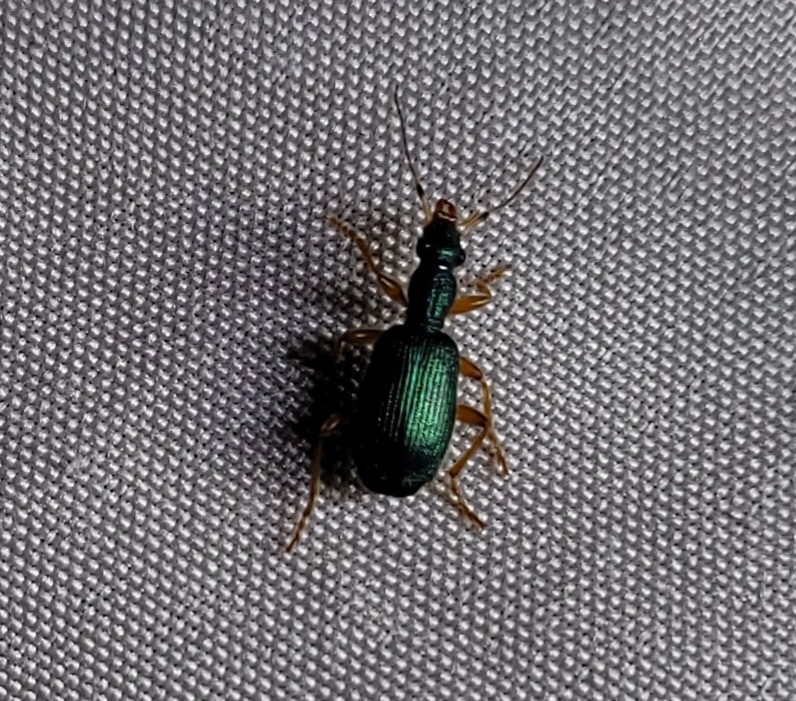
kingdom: Animalia
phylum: Arthropoda
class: Insecta
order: Coleoptera
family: Carabidae
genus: Drypta
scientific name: Drypta dentata
